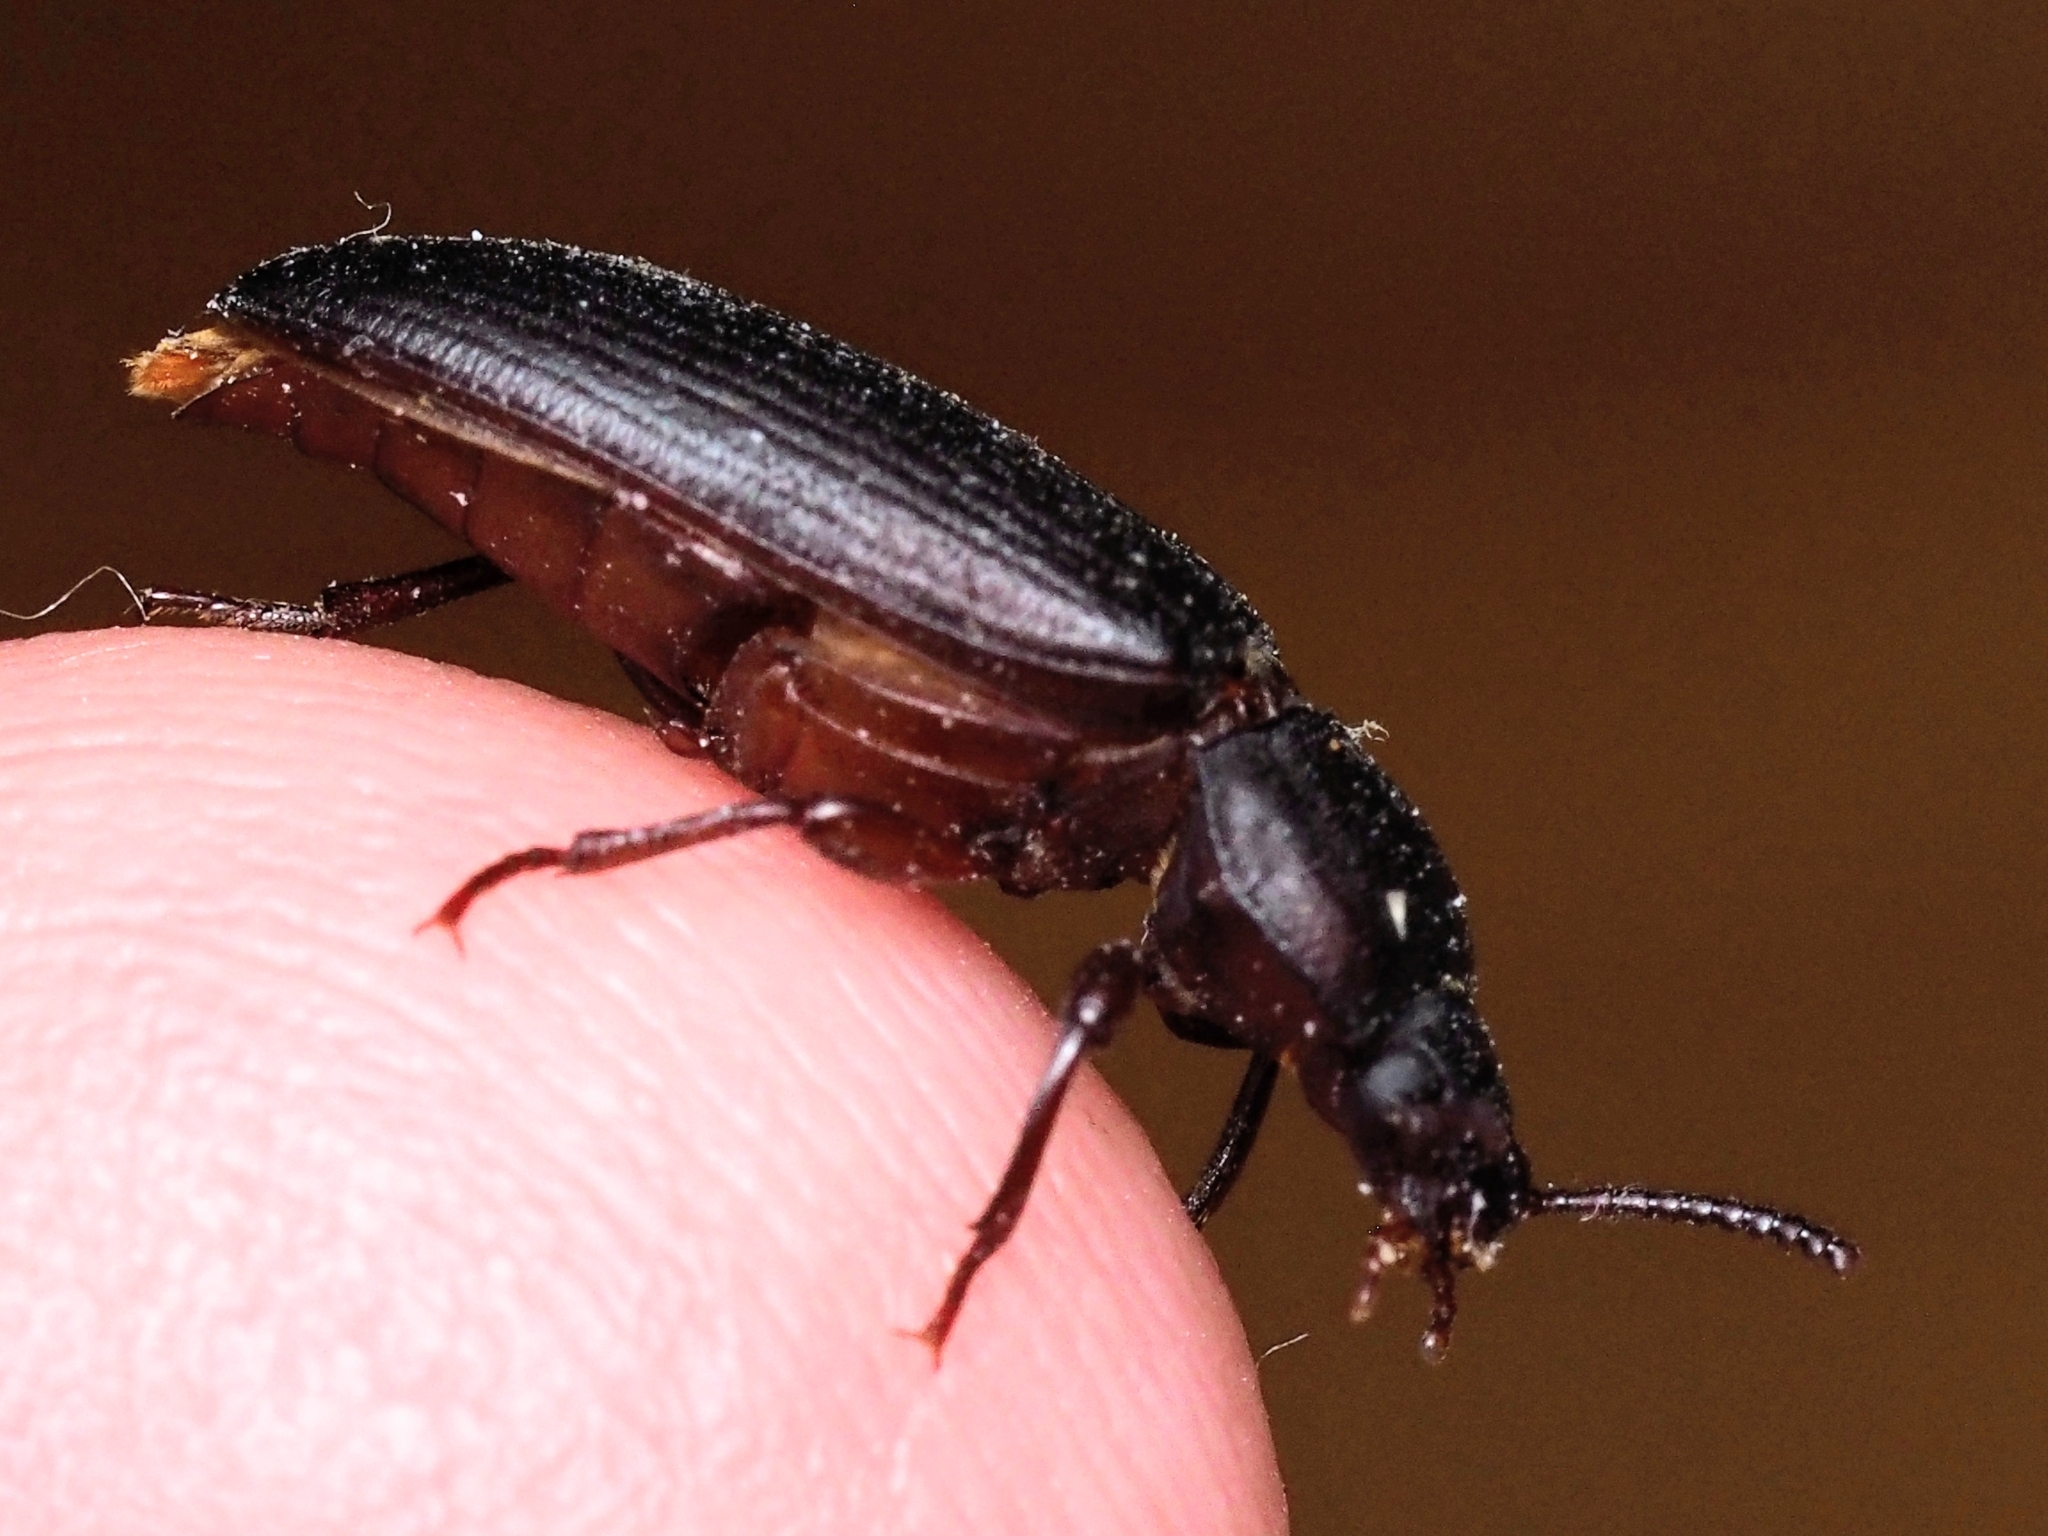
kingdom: Animalia
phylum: Arthropoda
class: Insecta
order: Coleoptera
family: Tenebrionidae
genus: Tenebrio
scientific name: Tenebrio molitor
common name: Hardback beetle
